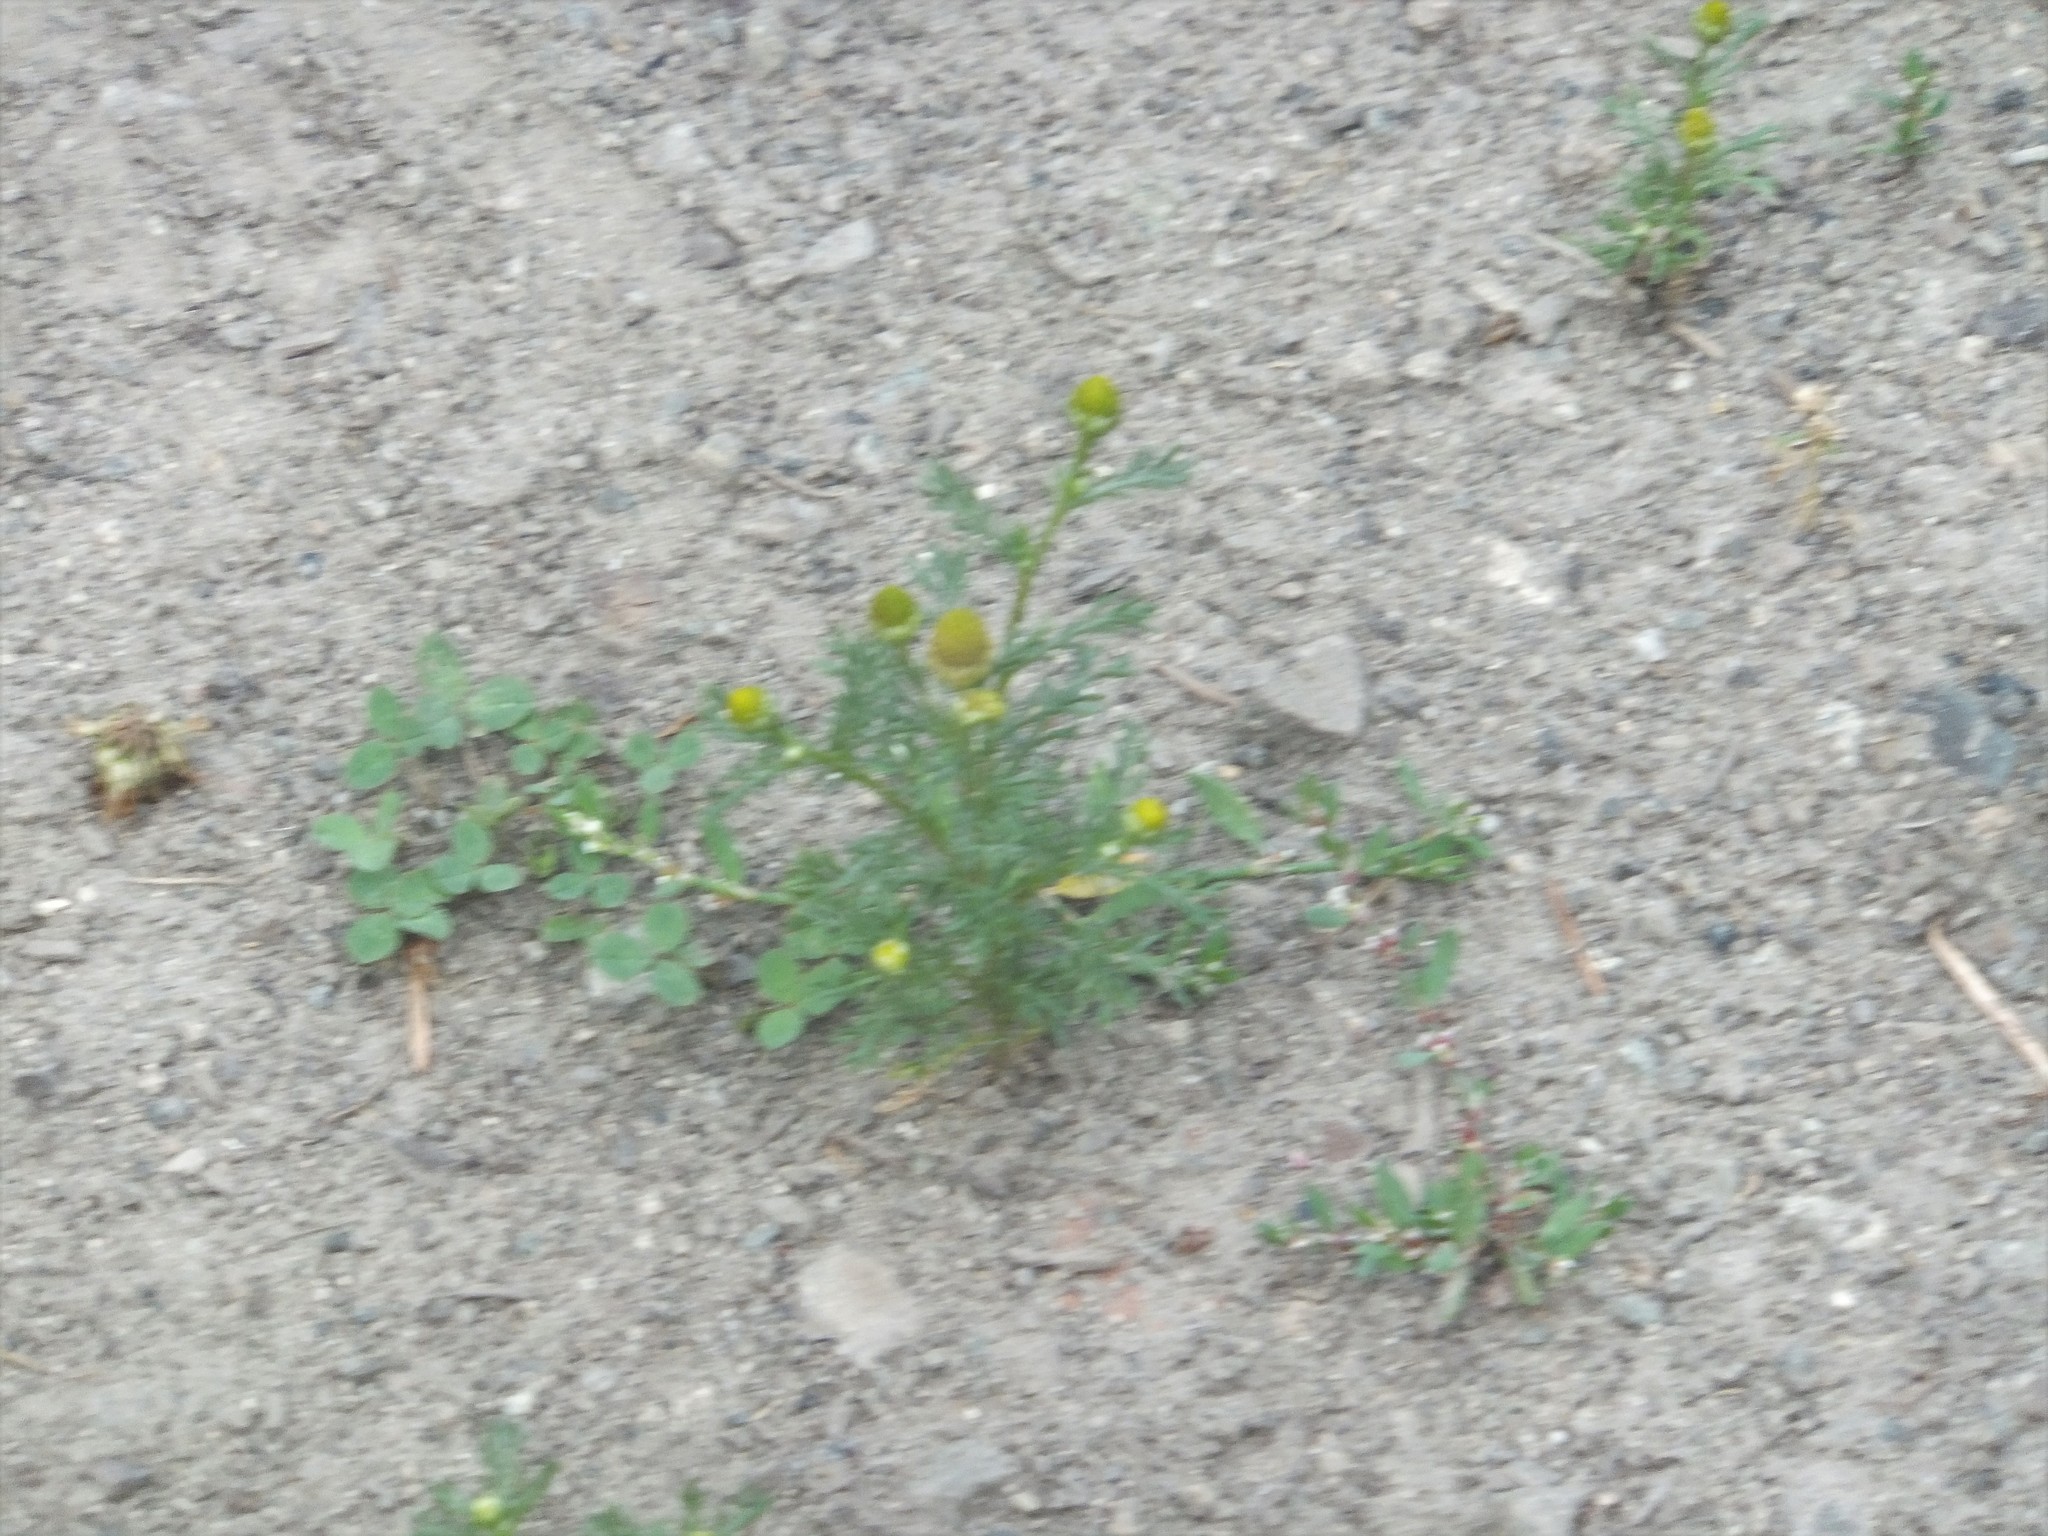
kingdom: Plantae
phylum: Tracheophyta
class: Magnoliopsida
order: Asterales
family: Asteraceae
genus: Matricaria
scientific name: Matricaria discoidea
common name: Disc mayweed
